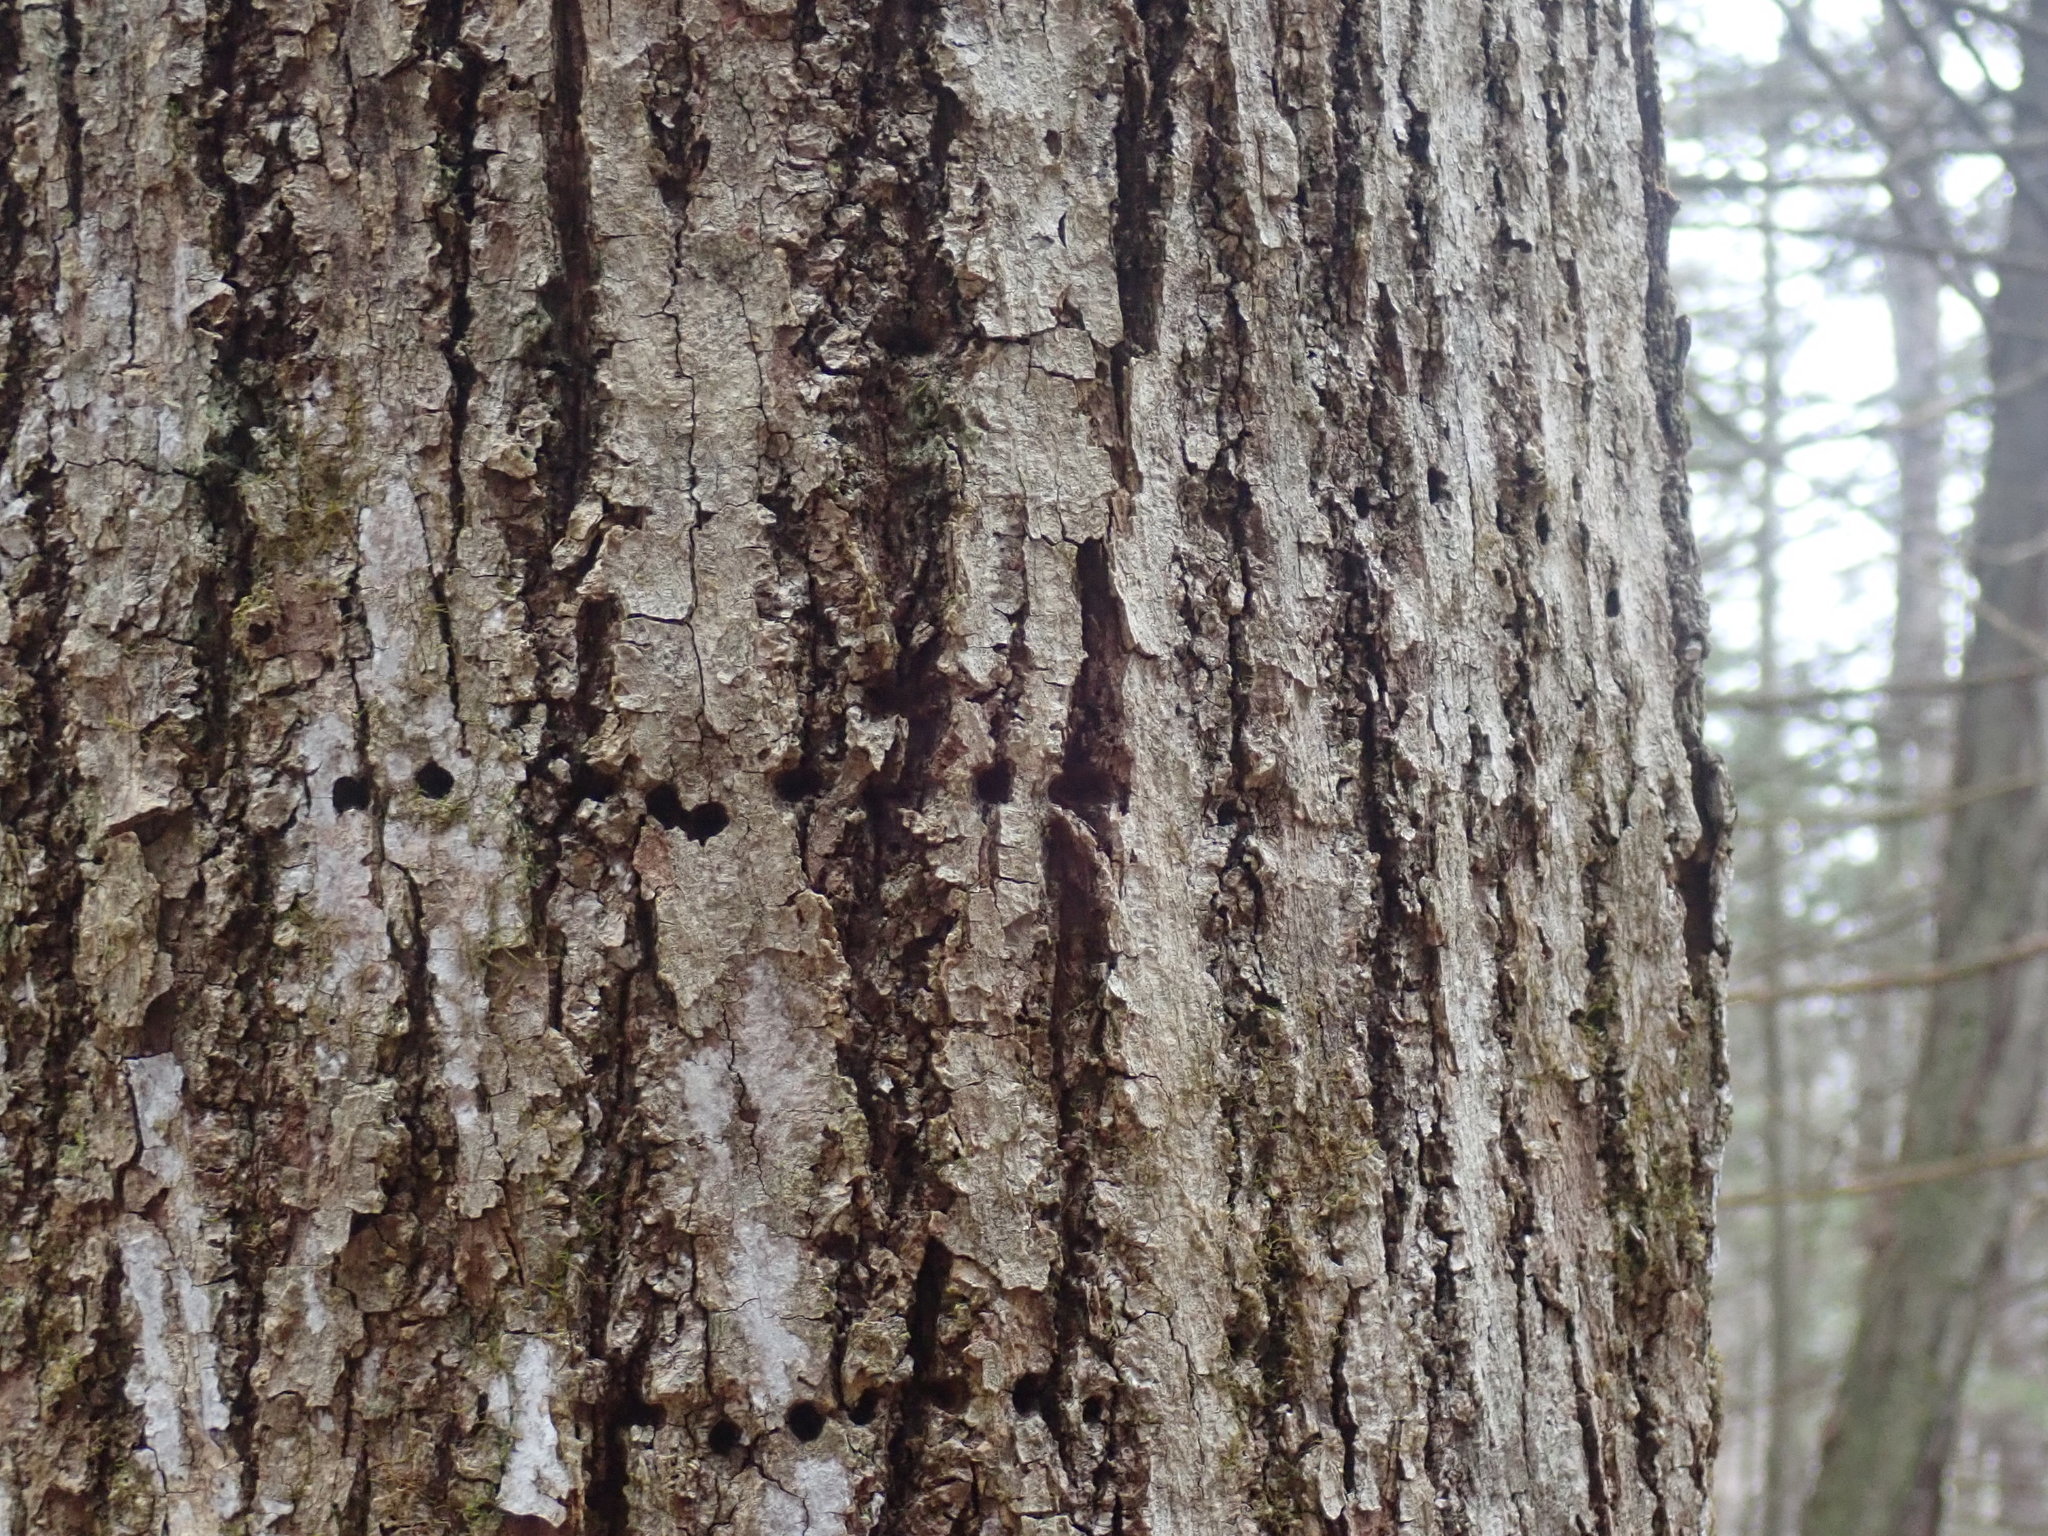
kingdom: Animalia
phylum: Chordata
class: Aves
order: Piciformes
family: Picidae
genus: Sphyrapicus
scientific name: Sphyrapicus varius
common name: Yellow-bellied sapsucker
